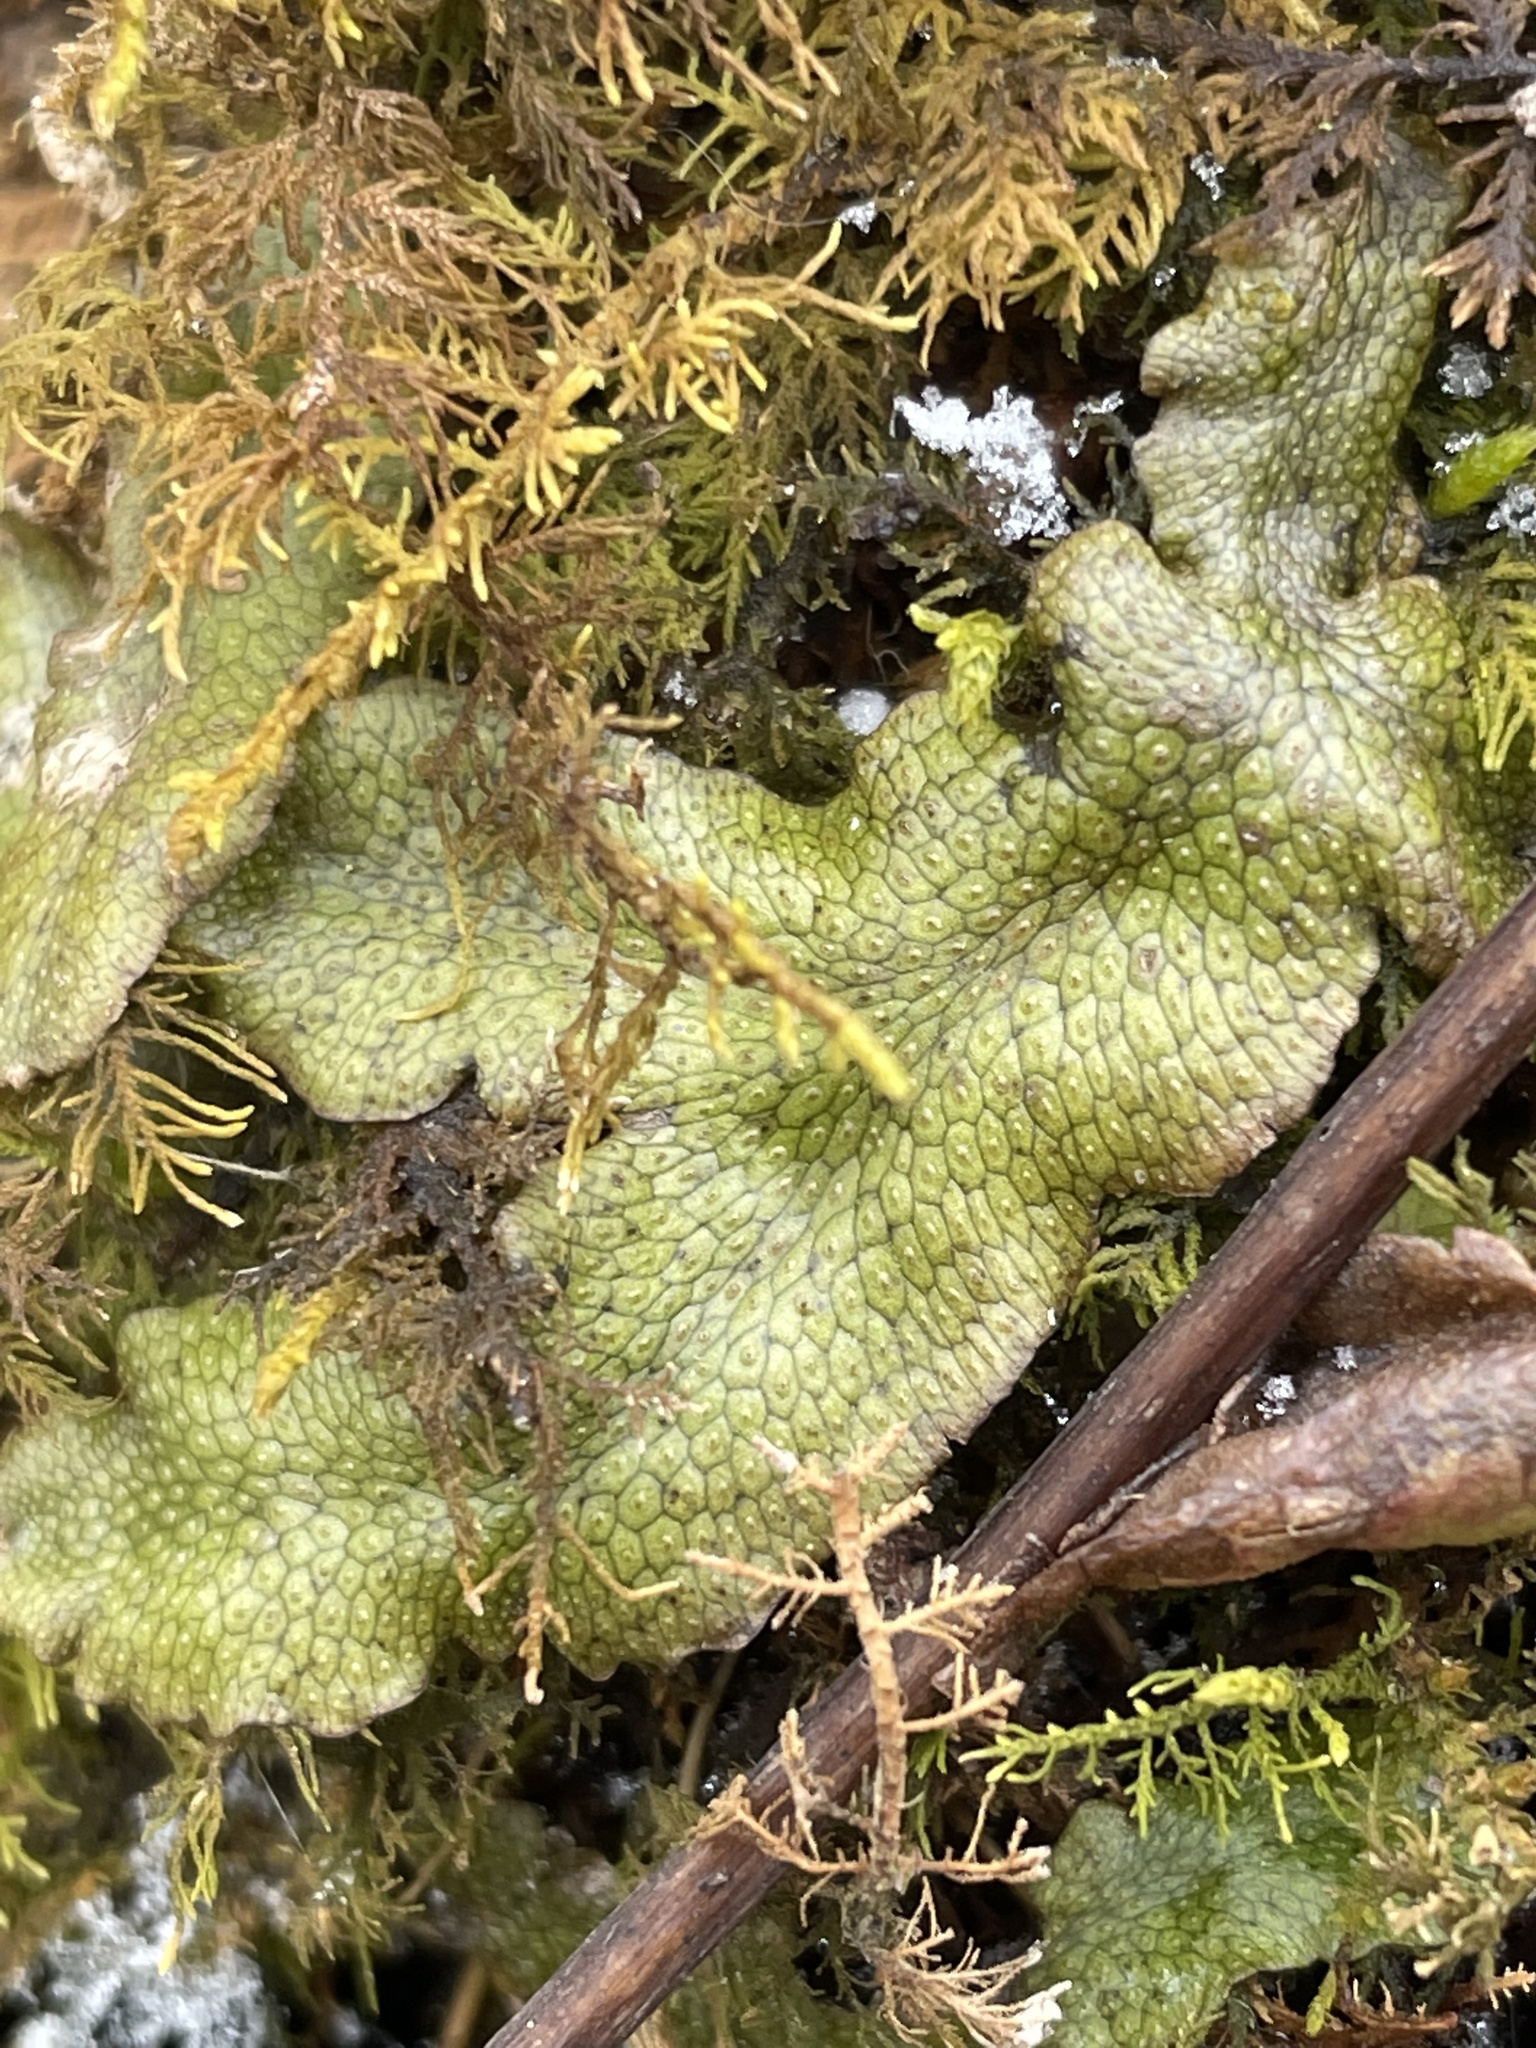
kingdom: Plantae
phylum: Marchantiophyta
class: Marchantiopsida
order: Marchantiales
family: Conocephalaceae
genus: Conocephalum
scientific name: Conocephalum salebrosum
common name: Cat-tongue liverwort
